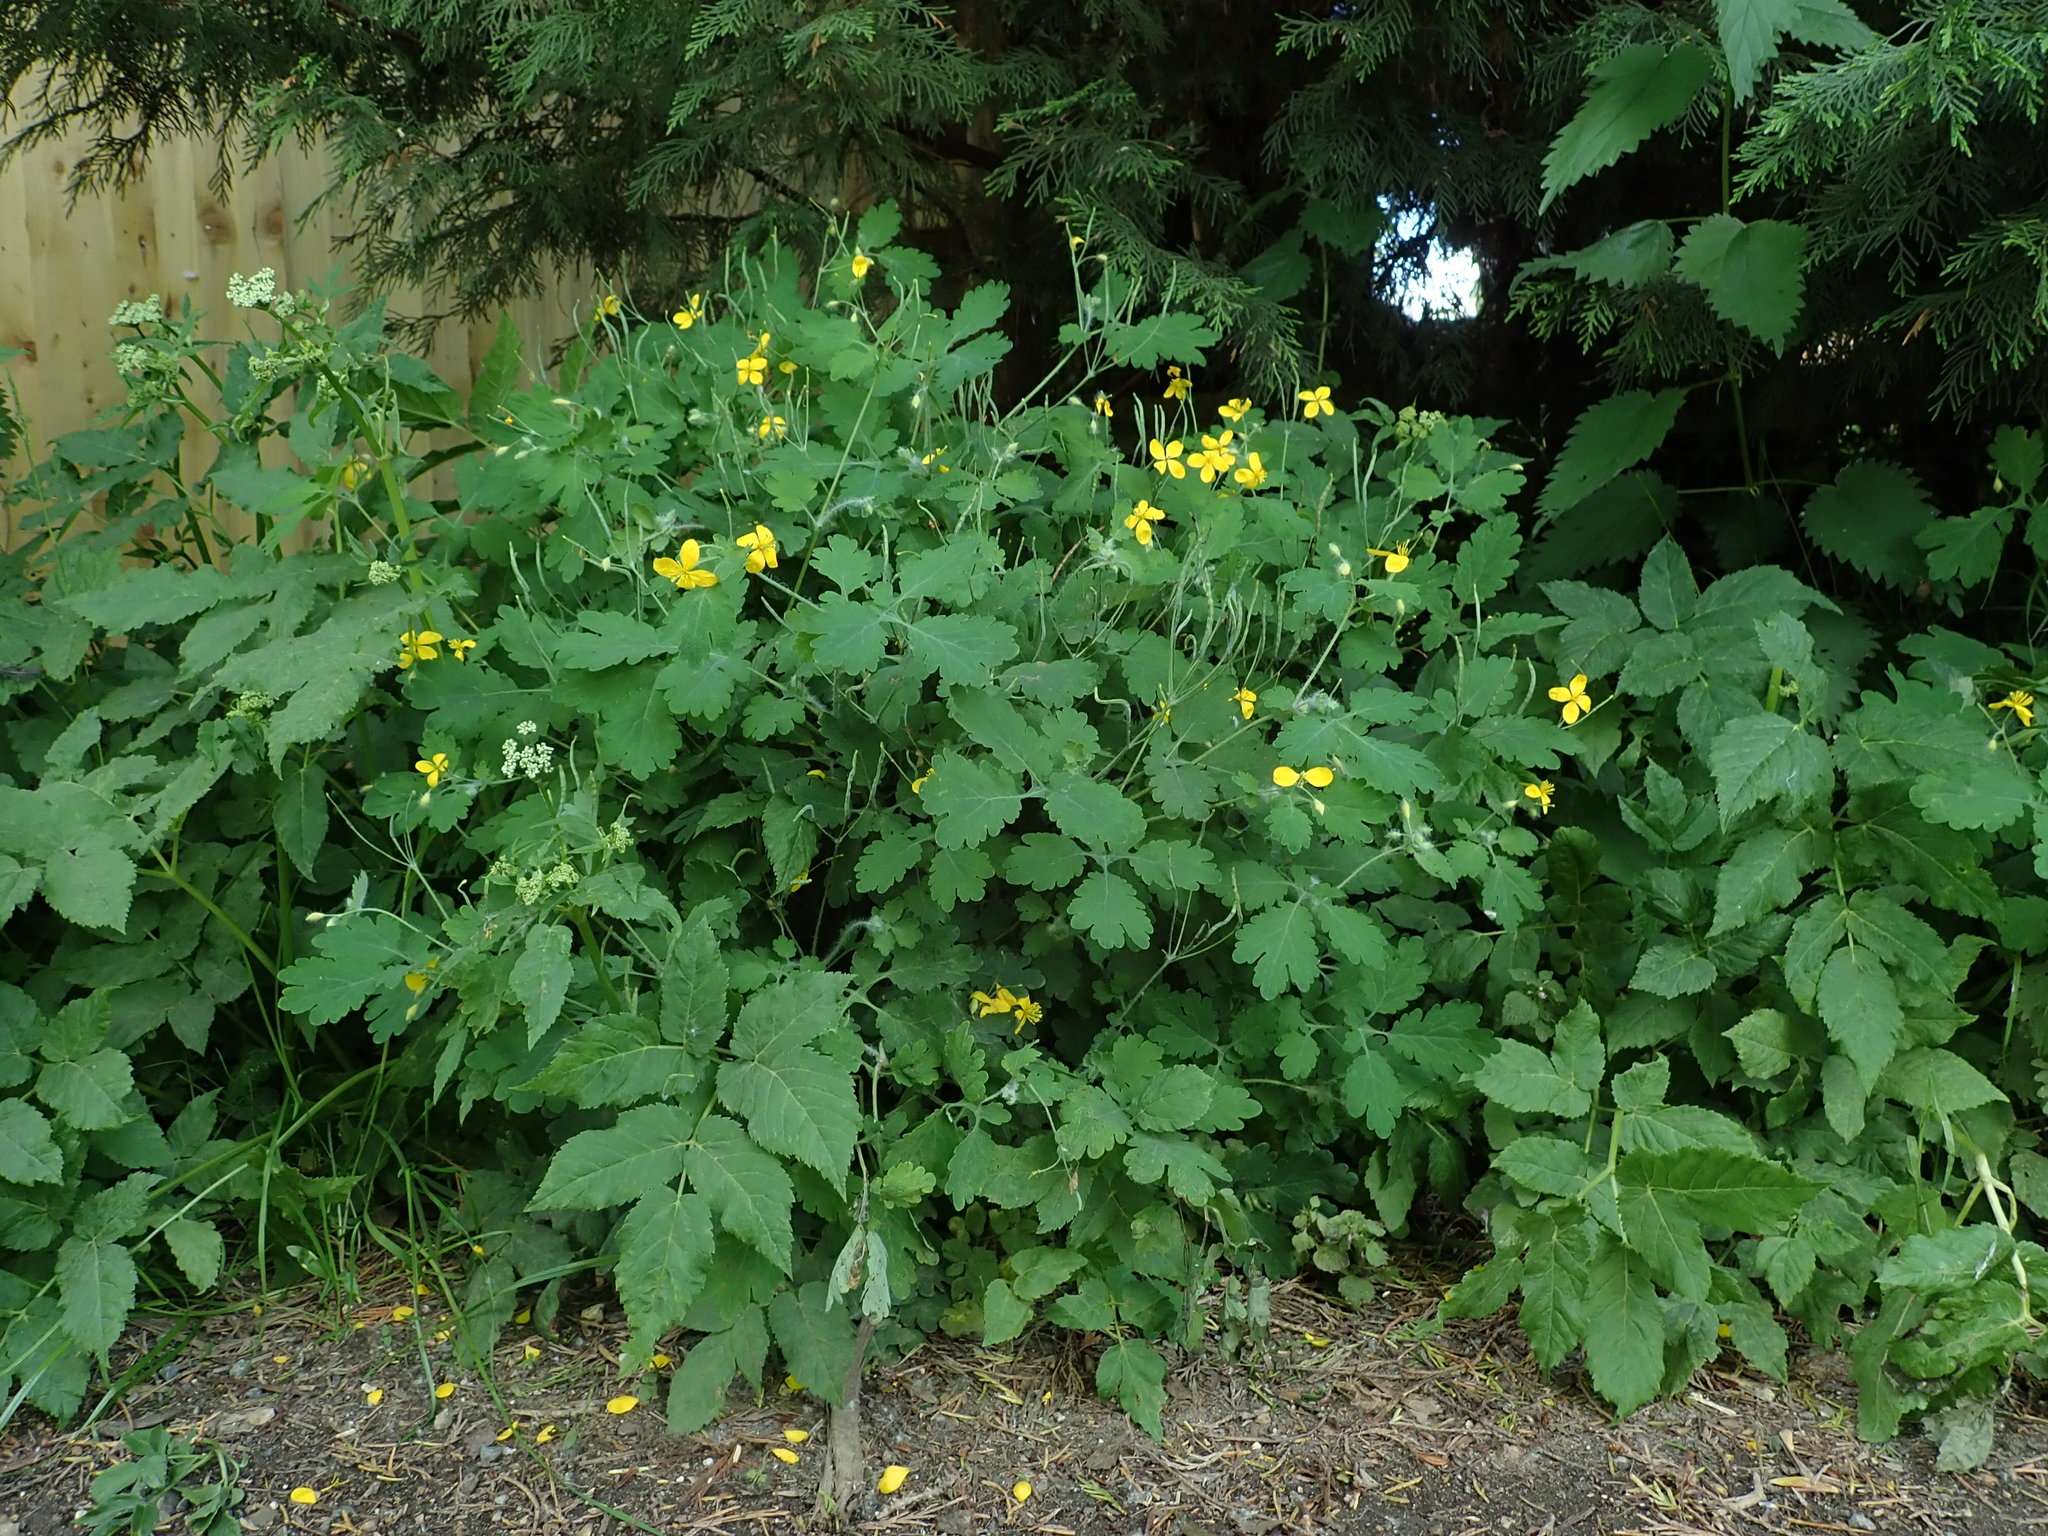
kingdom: Plantae
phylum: Tracheophyta
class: Magnoliopsida
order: Ranunculales
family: Papaveraceae
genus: Chelidonium
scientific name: Chelidonium majus
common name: Greater celandine
